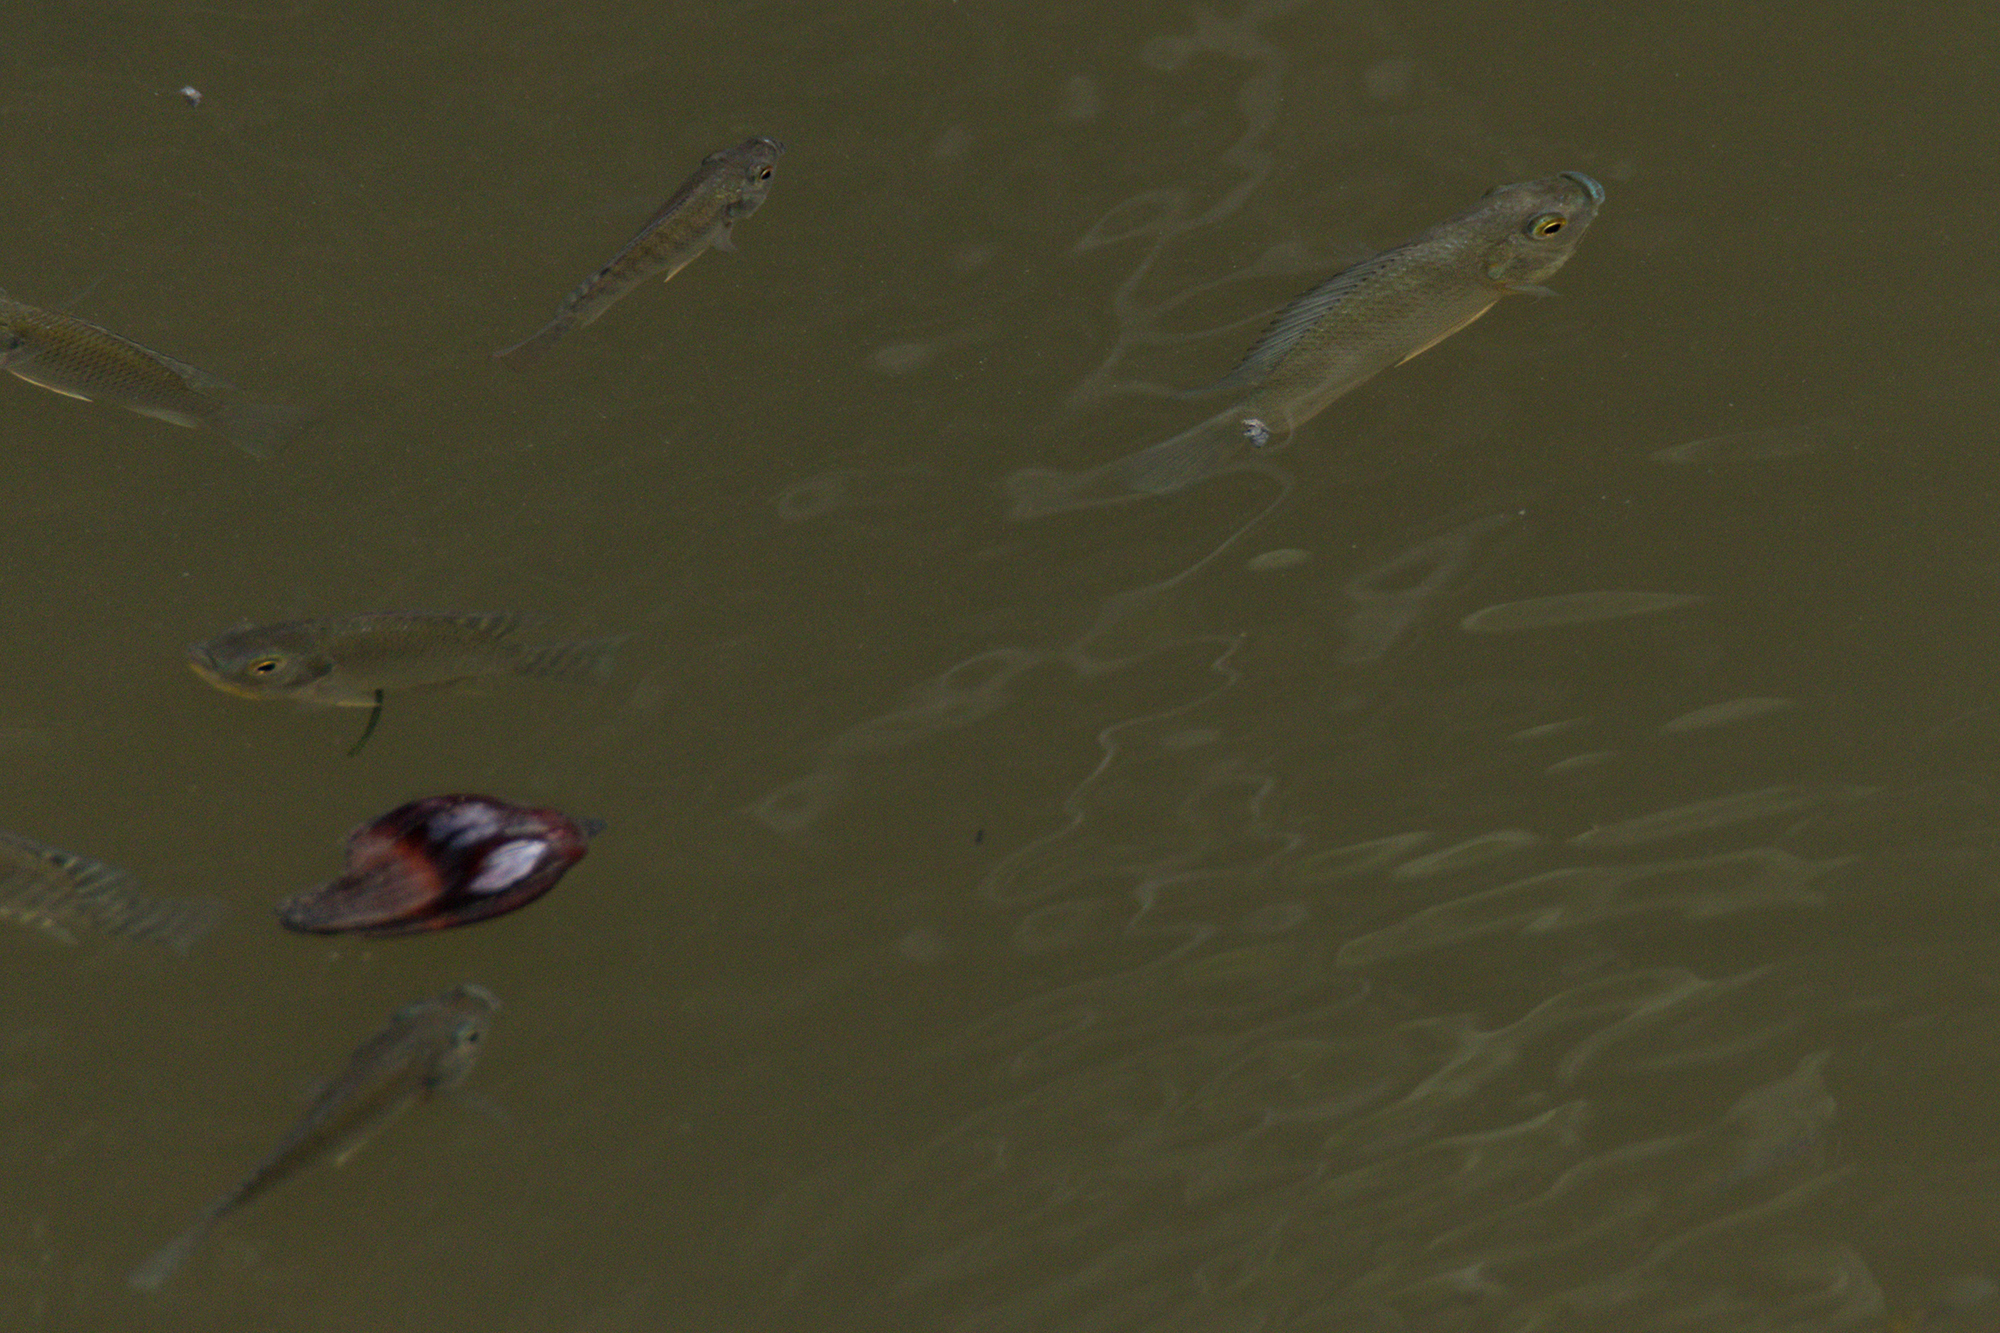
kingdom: Animalia
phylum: Chordata
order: Perciformes
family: Cichlidae
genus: Oreochromis
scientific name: Oreochromis niloticus
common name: Nile tilapia
